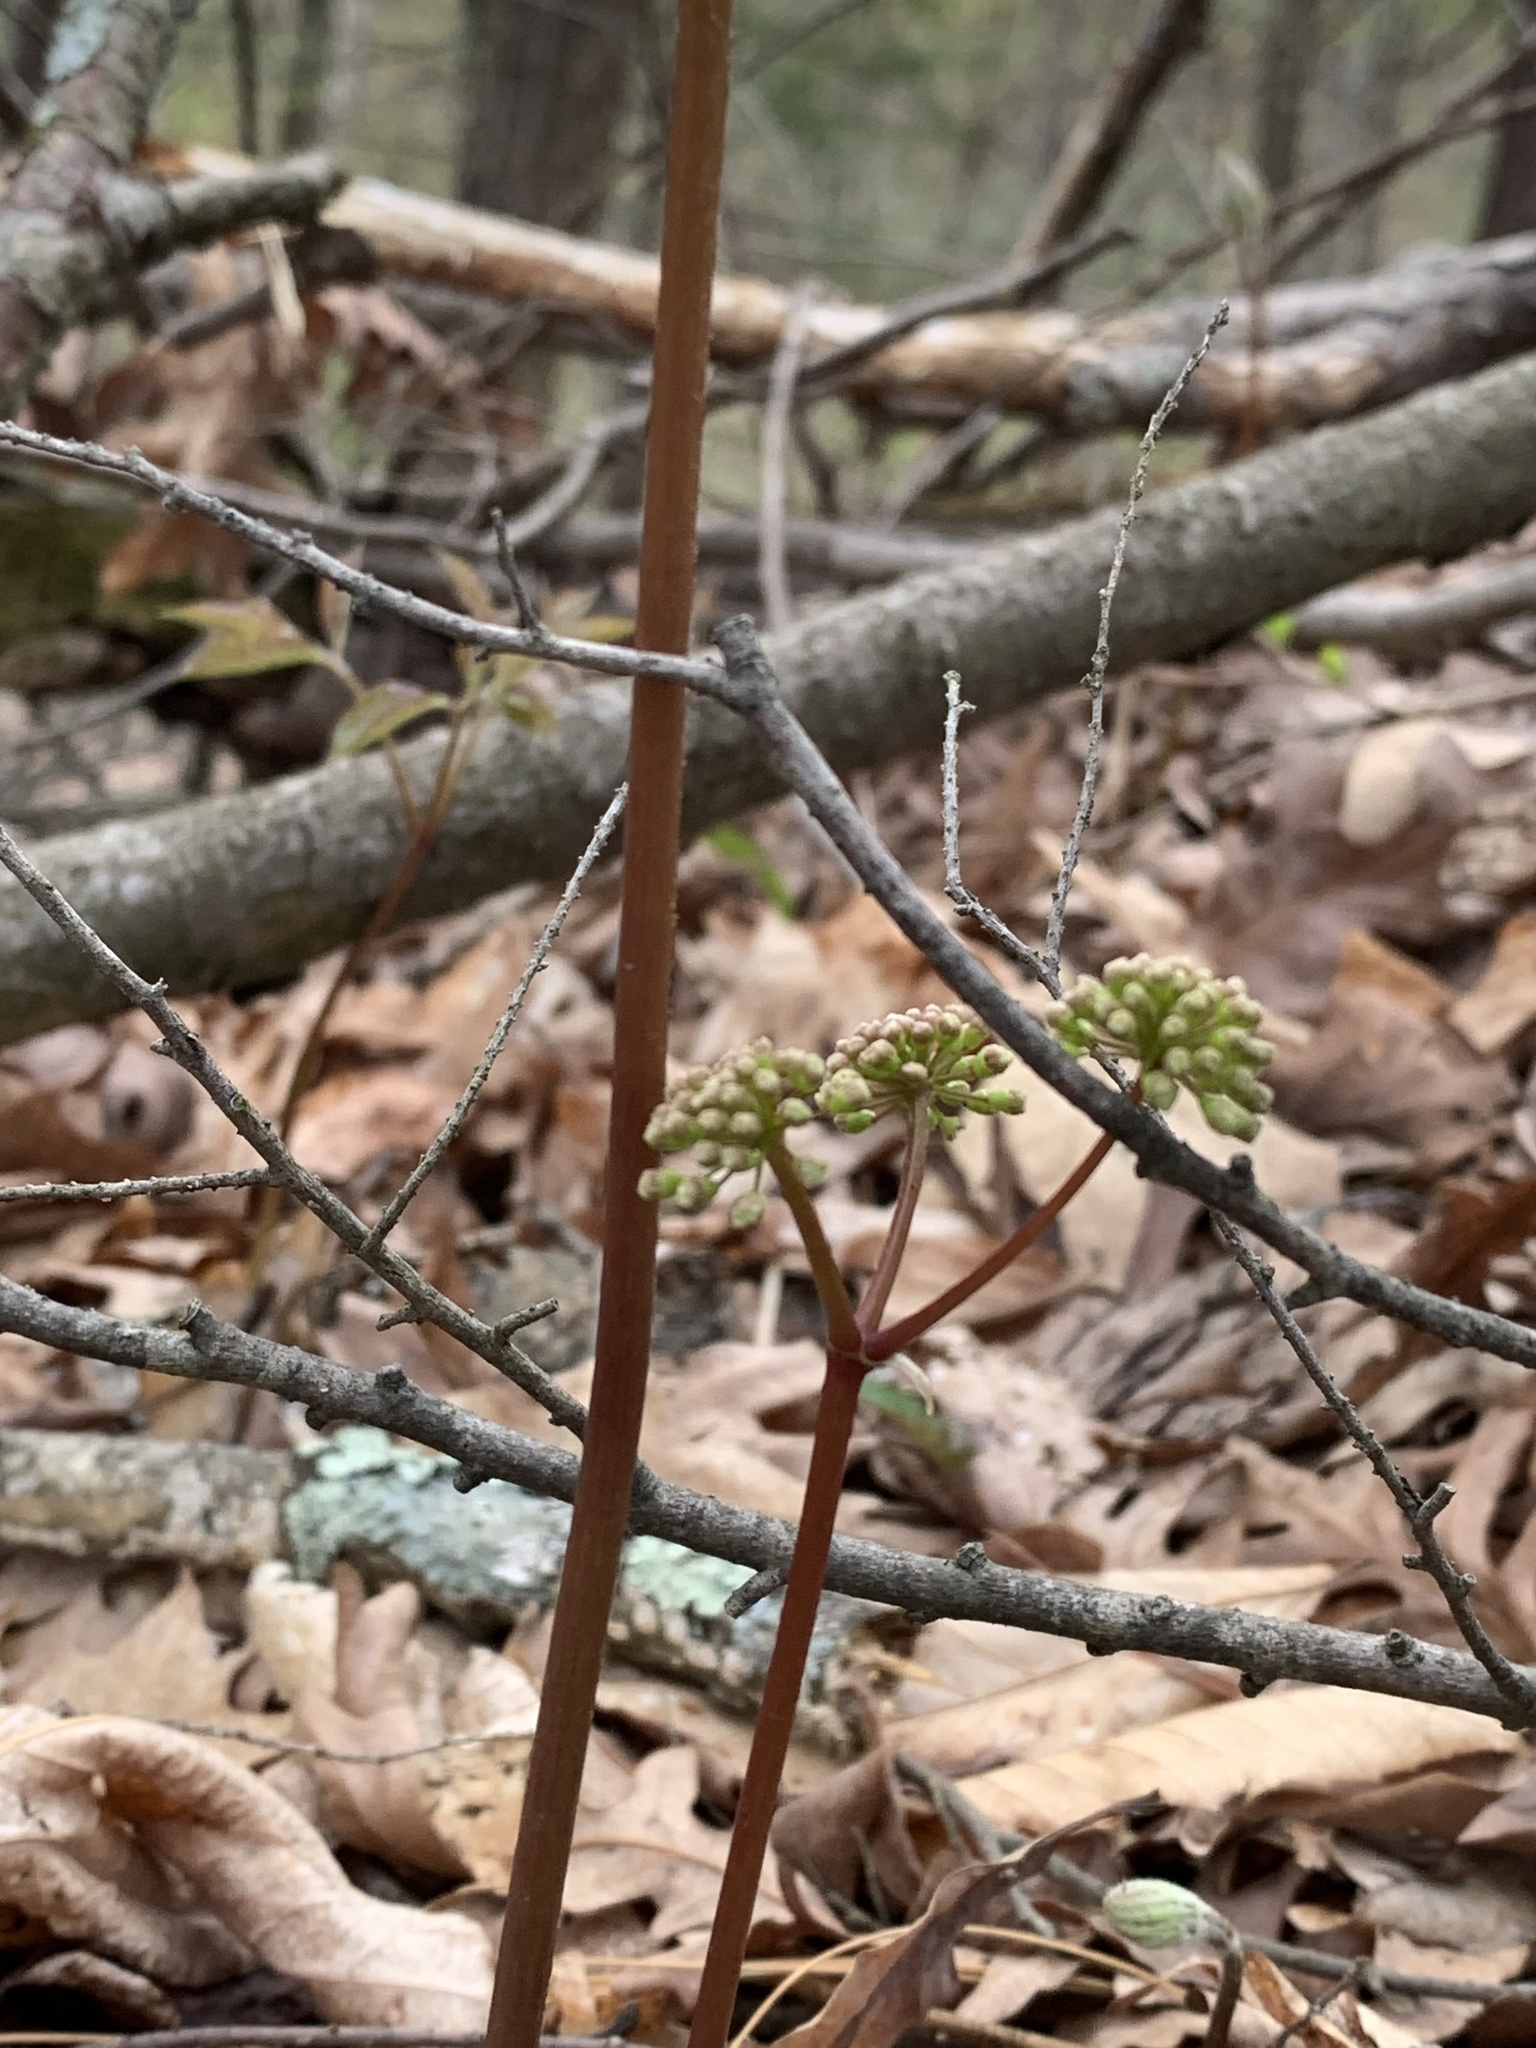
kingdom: Plantae
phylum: Tracheophyta
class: Magnoliopsida
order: Apiales
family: Araliaceae
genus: Aralia
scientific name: Aralia nudicaulis
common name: Wild sarsaparilla
